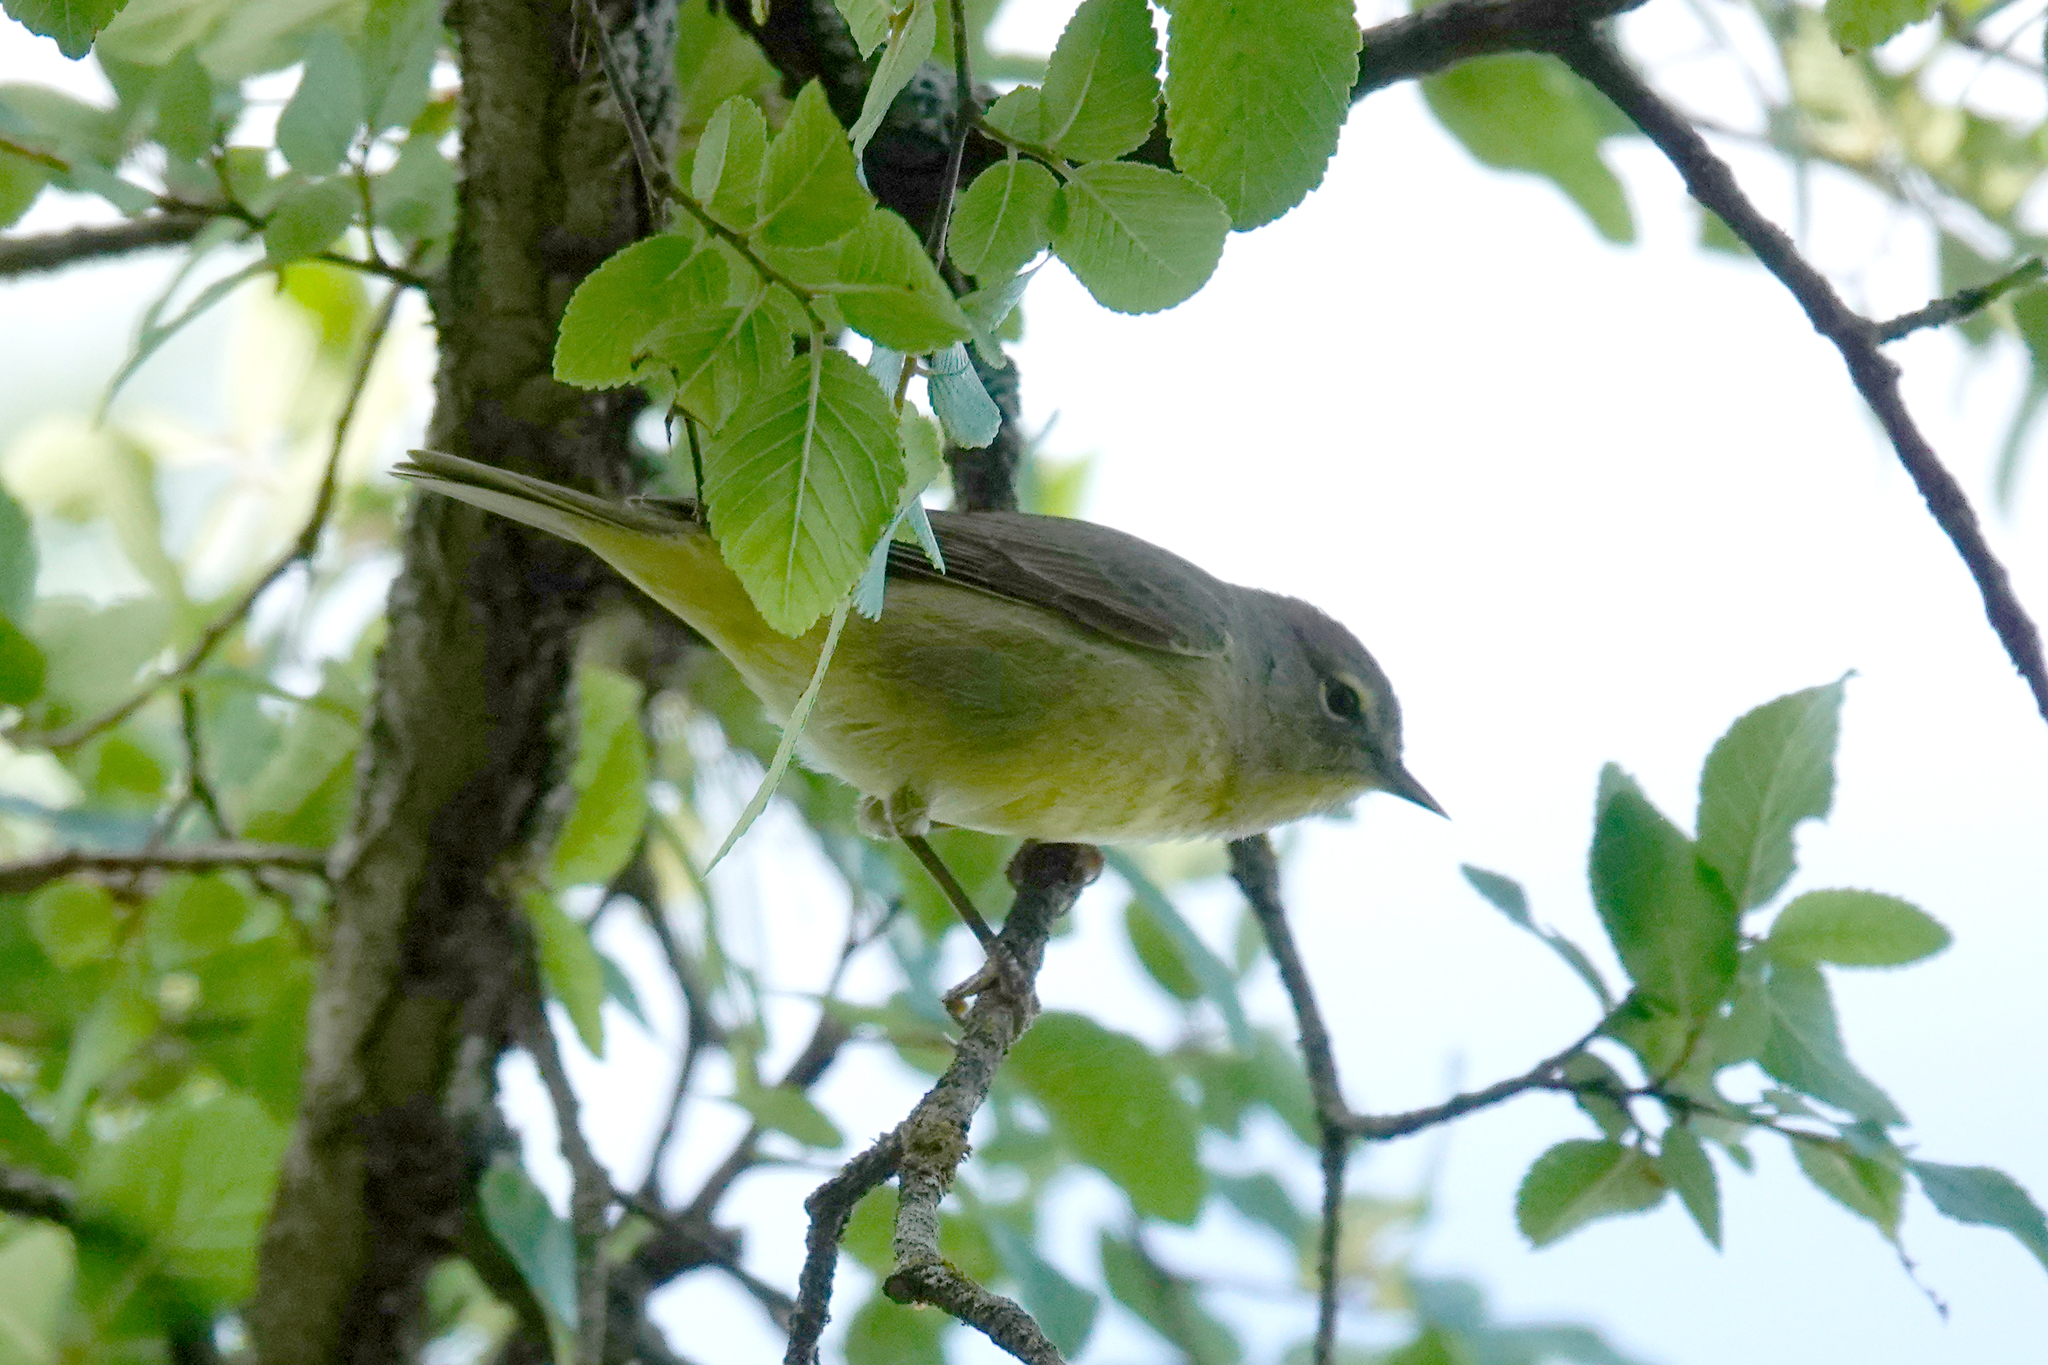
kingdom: Animalia
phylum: Chordata
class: Aves
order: Passeriformes
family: Parulidae
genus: Leiothlypis
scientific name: Leiothlypis celata
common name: Orange-crowned warbler
